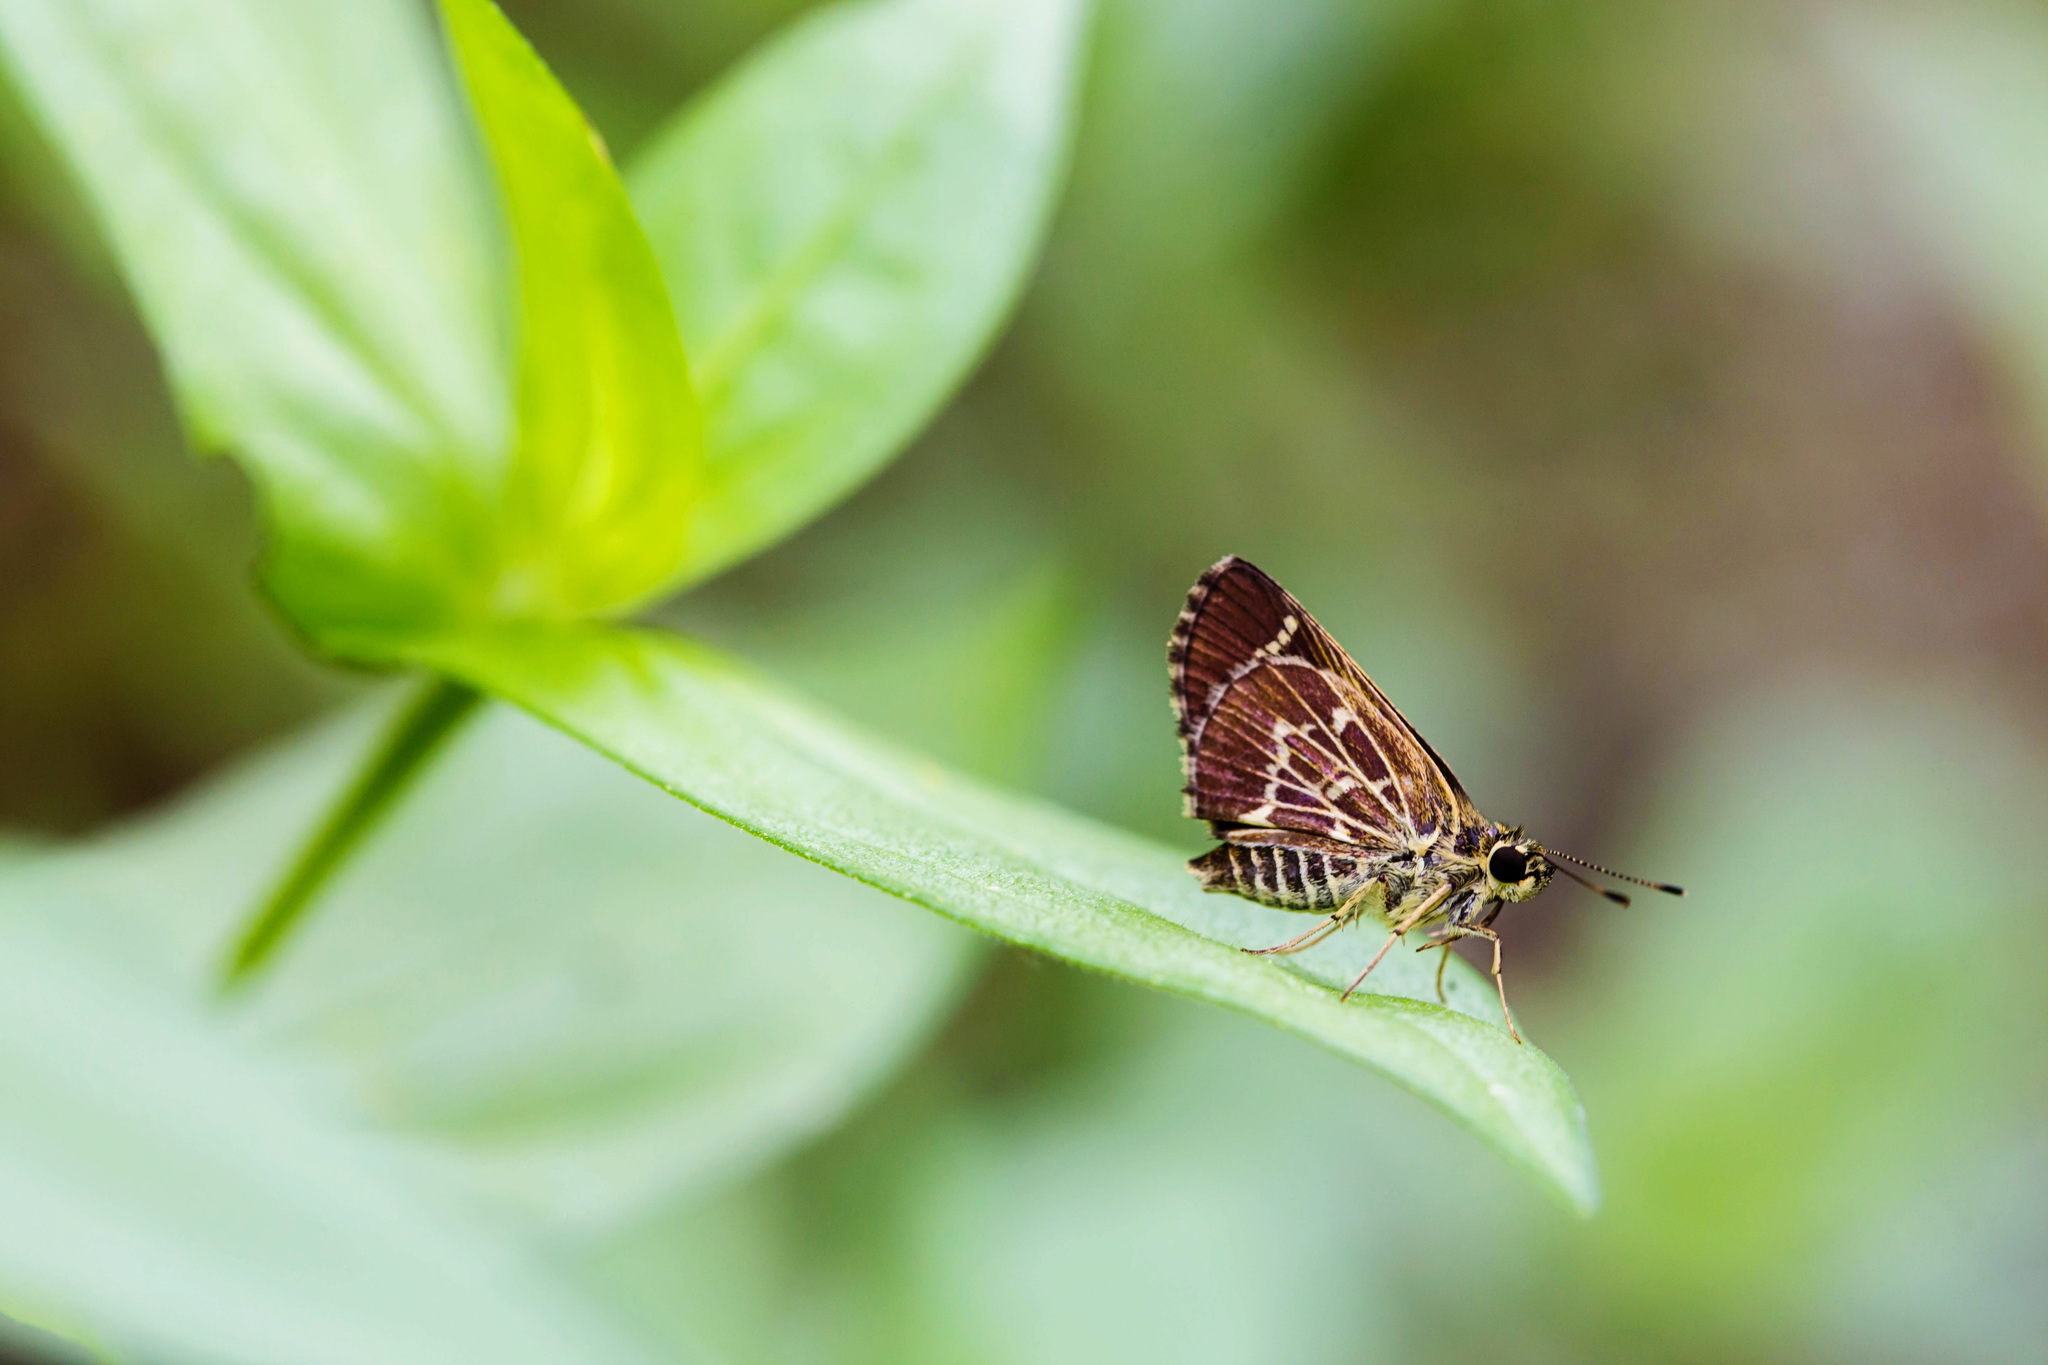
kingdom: Animalia
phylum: Arthropoda
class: Insecta
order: Lepidoptera
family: Hesperiidae
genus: Mastor
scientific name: Mastor aesculapius
